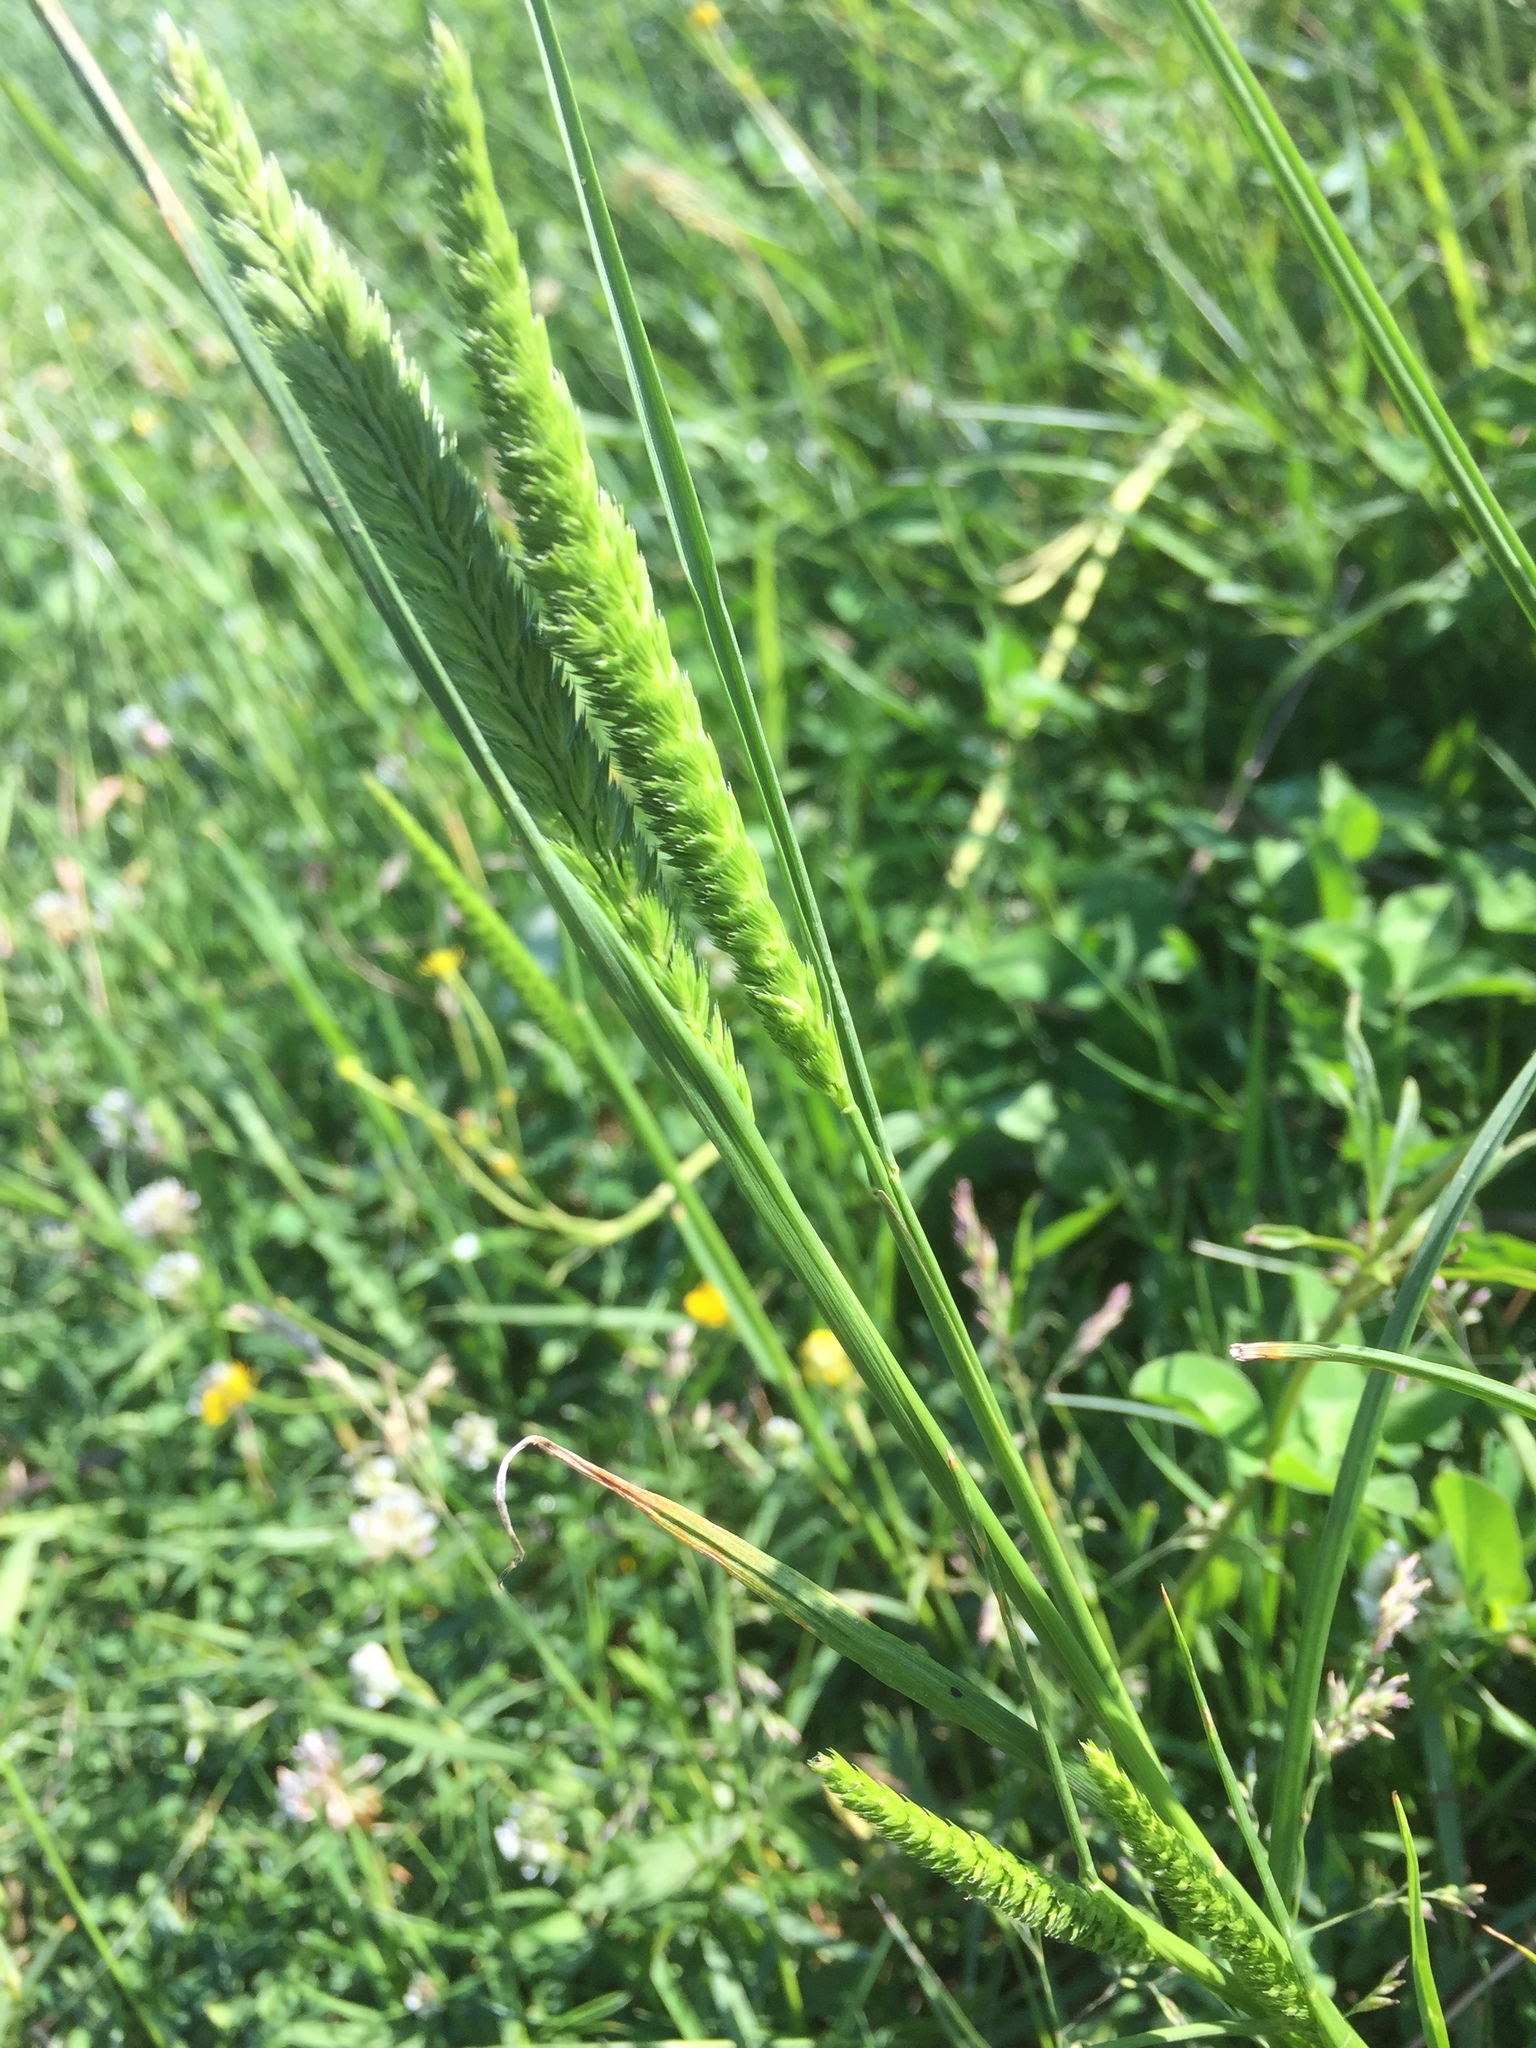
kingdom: Plantae
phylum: Tracheophyta
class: Liliopsida
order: Poales
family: Poaceae
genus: Cynosurus
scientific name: Cynosurus cristatus
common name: Crested dog's-tail
